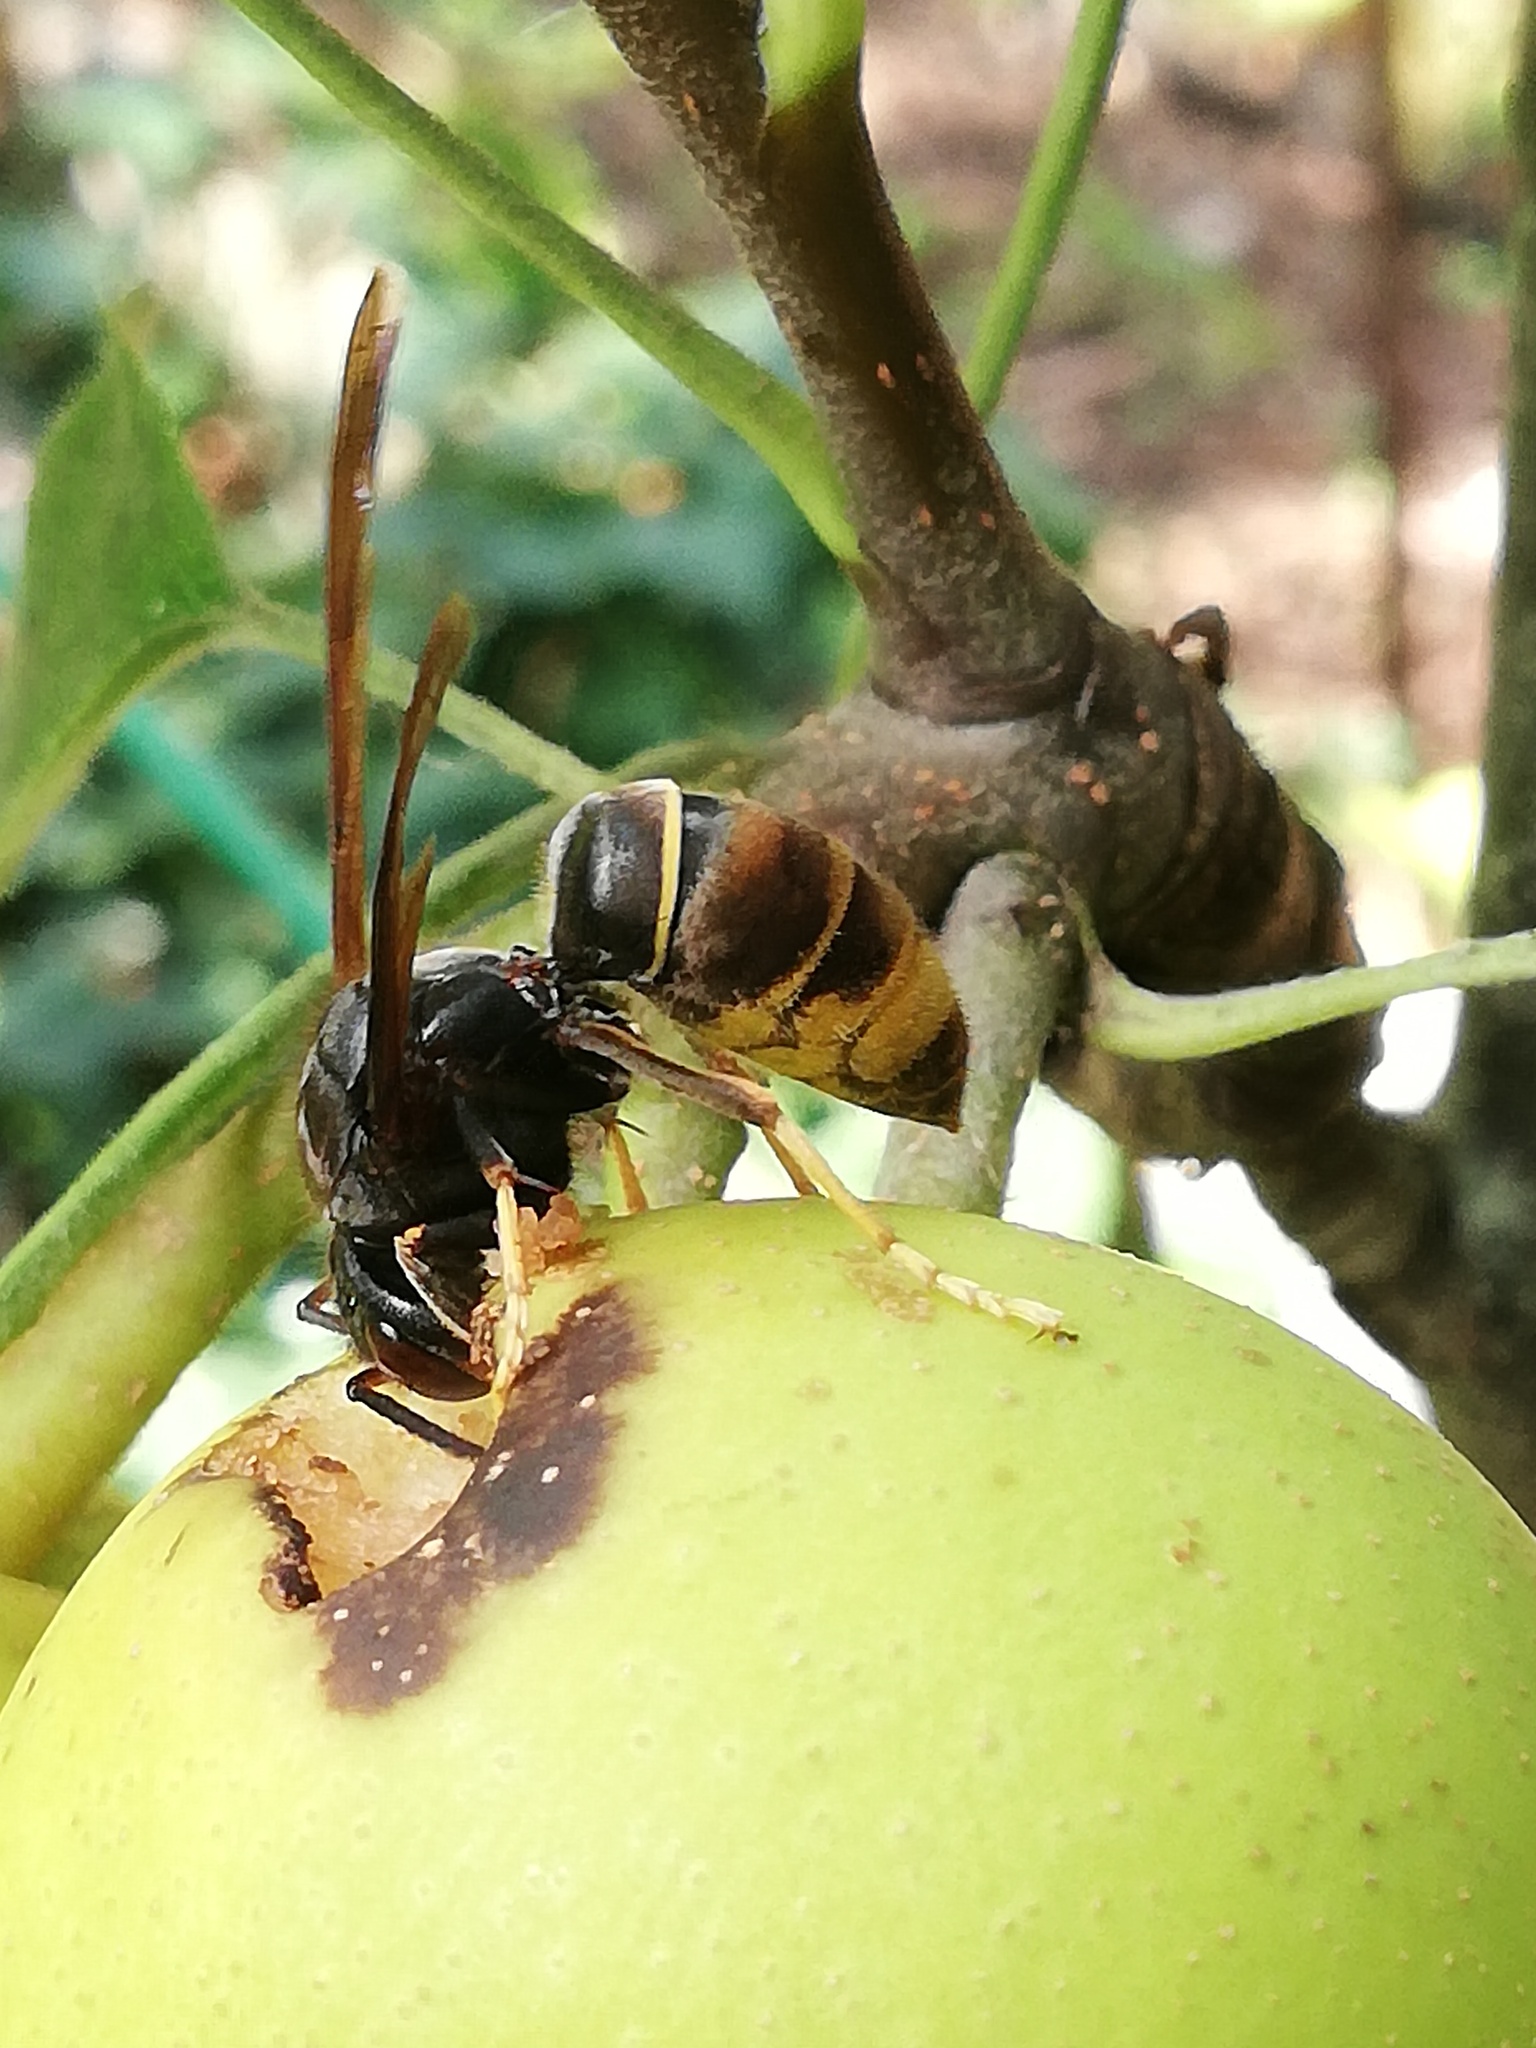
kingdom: Animalia
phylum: Arthropoda
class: Insecta
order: Hymenoptera
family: Vespidae
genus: Vespa
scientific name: Vespa velutina
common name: Asian hornet
